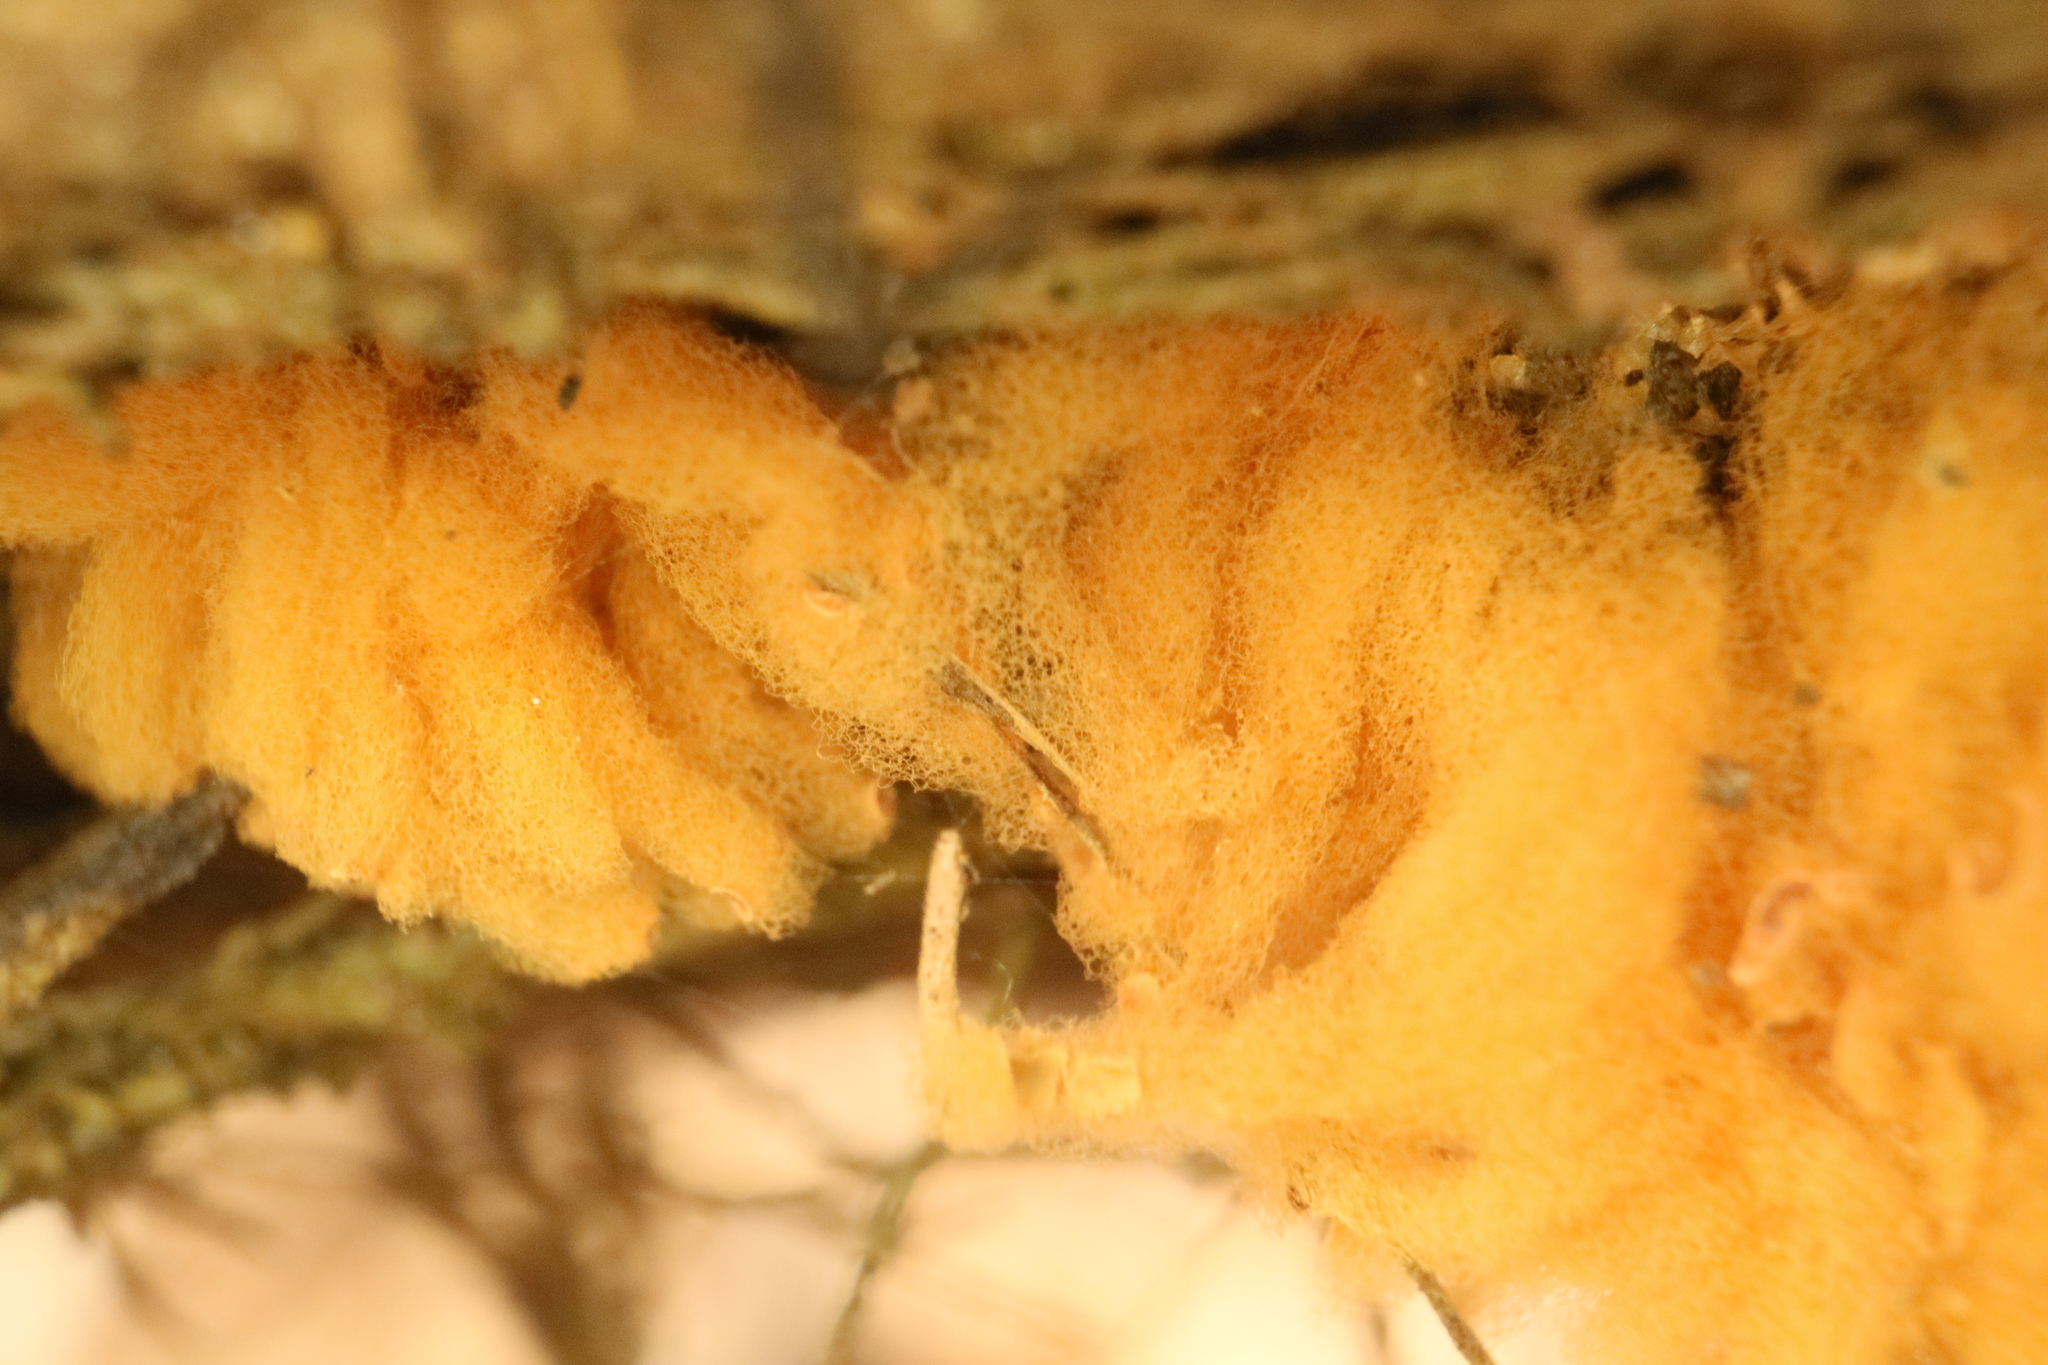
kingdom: Protozoa
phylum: Mycetozoa
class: Myxomycetes
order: Trichiales
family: Arcyriaceae
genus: Arcyria
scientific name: Arcyria obvelata
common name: Yellow carnival candy slime
